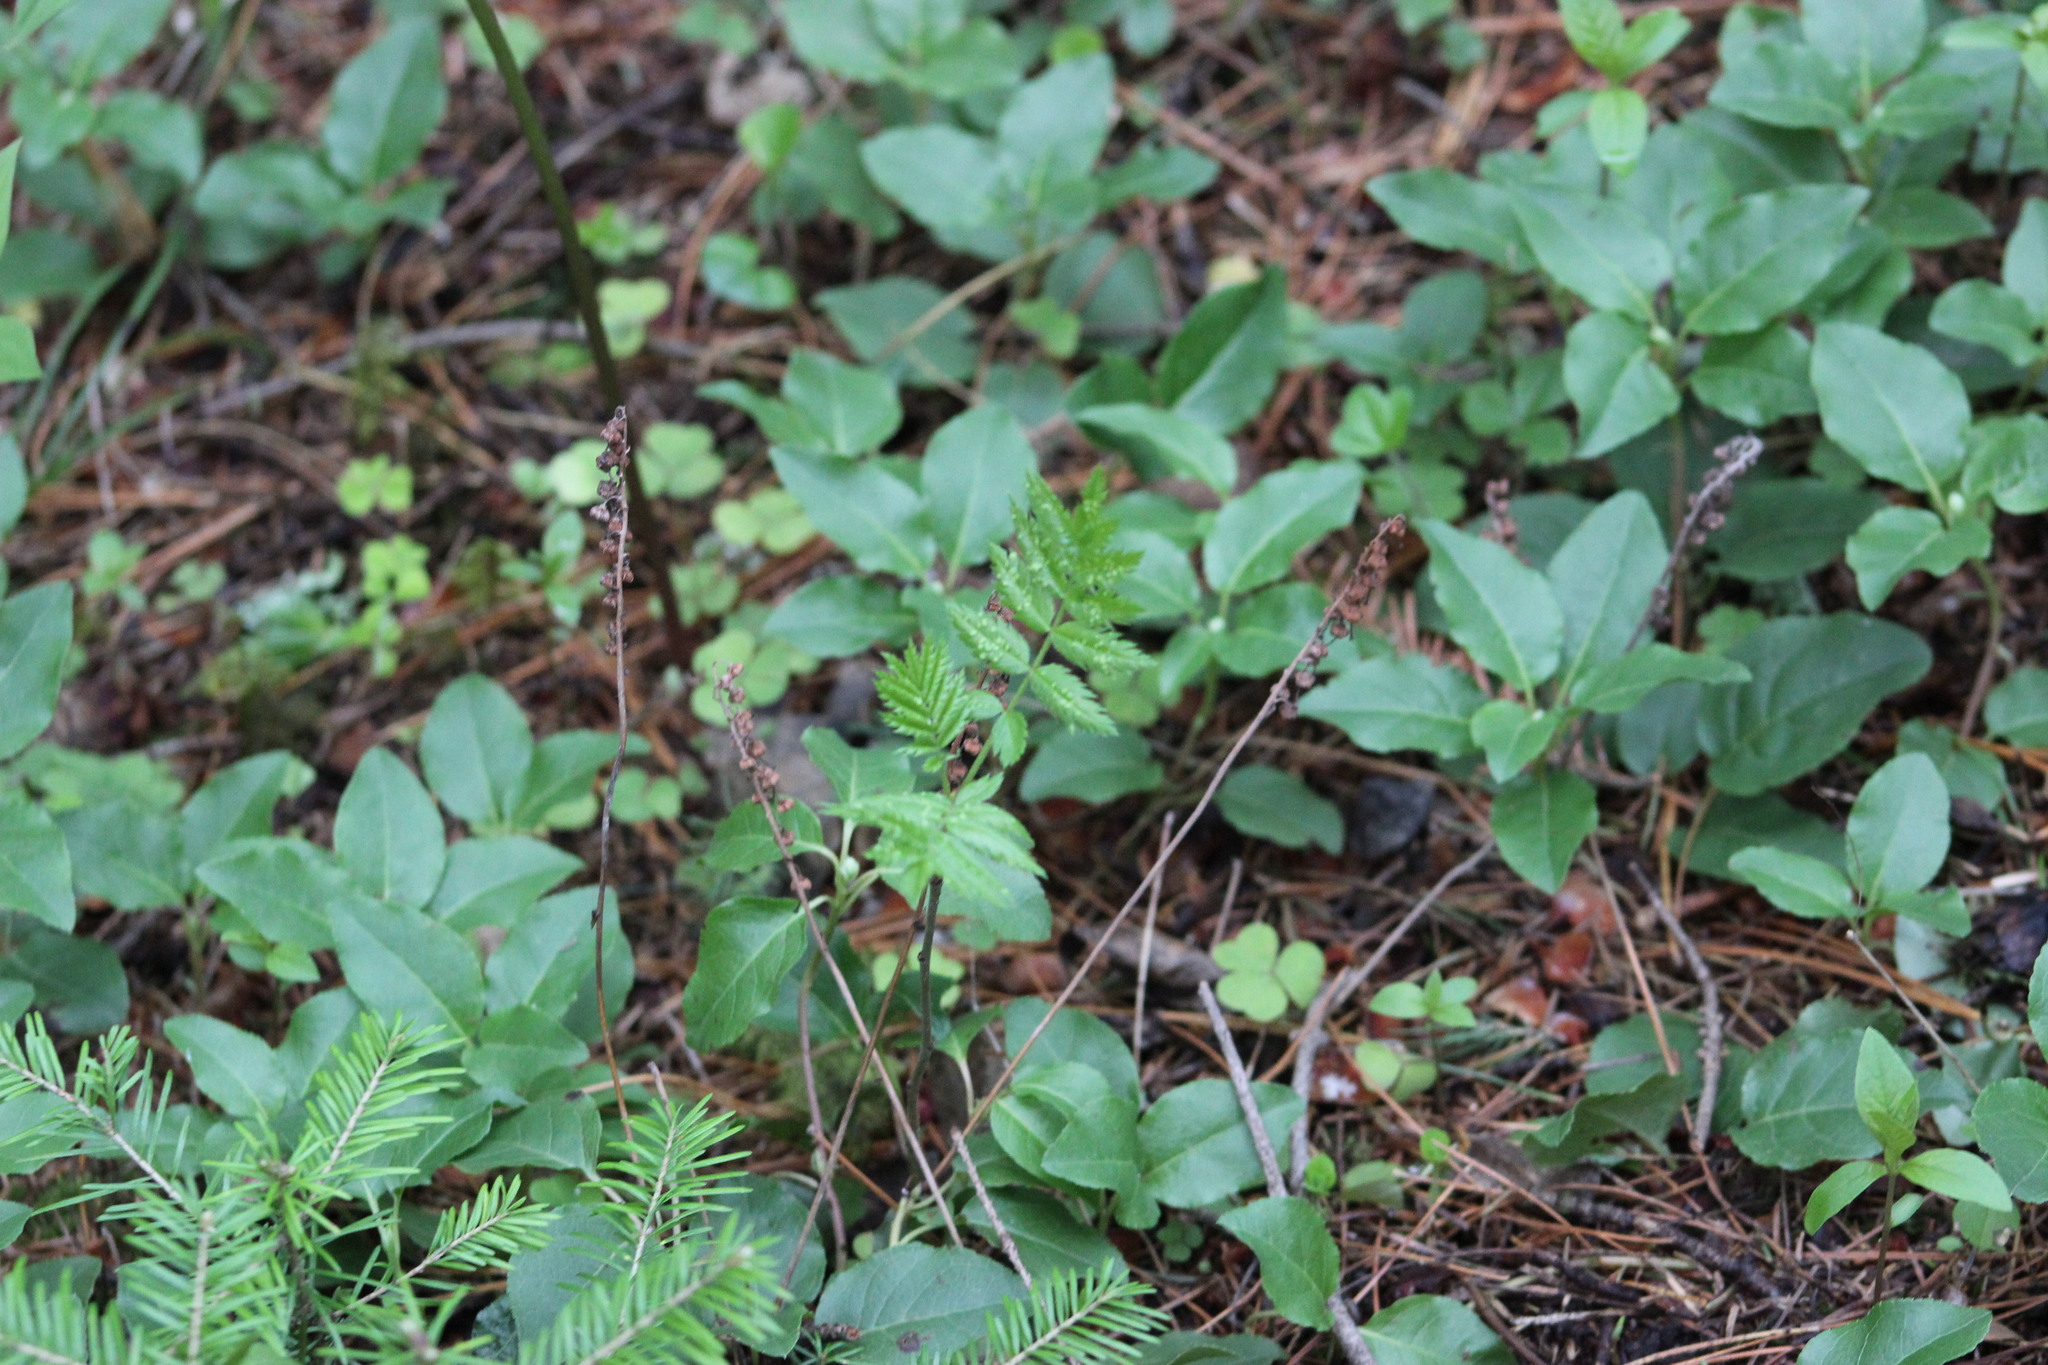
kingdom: Plantae
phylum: Tracheophyta
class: Magnoliopsida
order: Ericales
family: Ericaceae
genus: Orthilia
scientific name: Orthilia secunda
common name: One-sided orthilia
